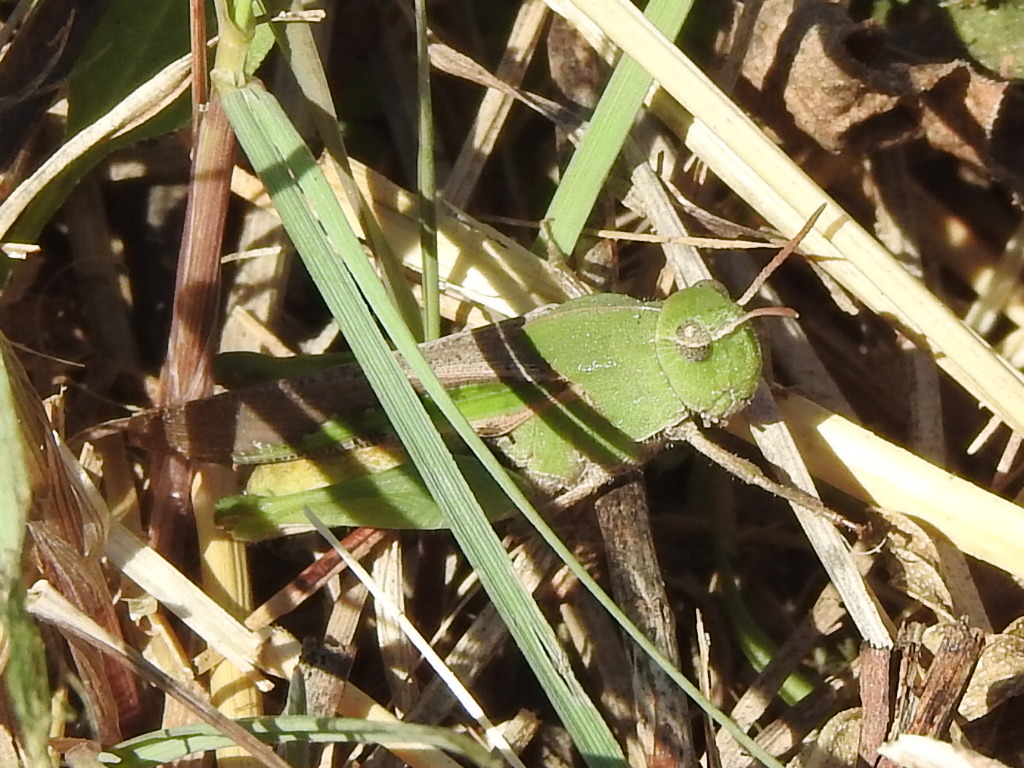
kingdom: Animalia
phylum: Arthropoda
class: Insecta
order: Orthoptera
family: Acrididae
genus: Chortophaga
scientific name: Chortophaga viridifasciata
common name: Green-striped grasshopper
